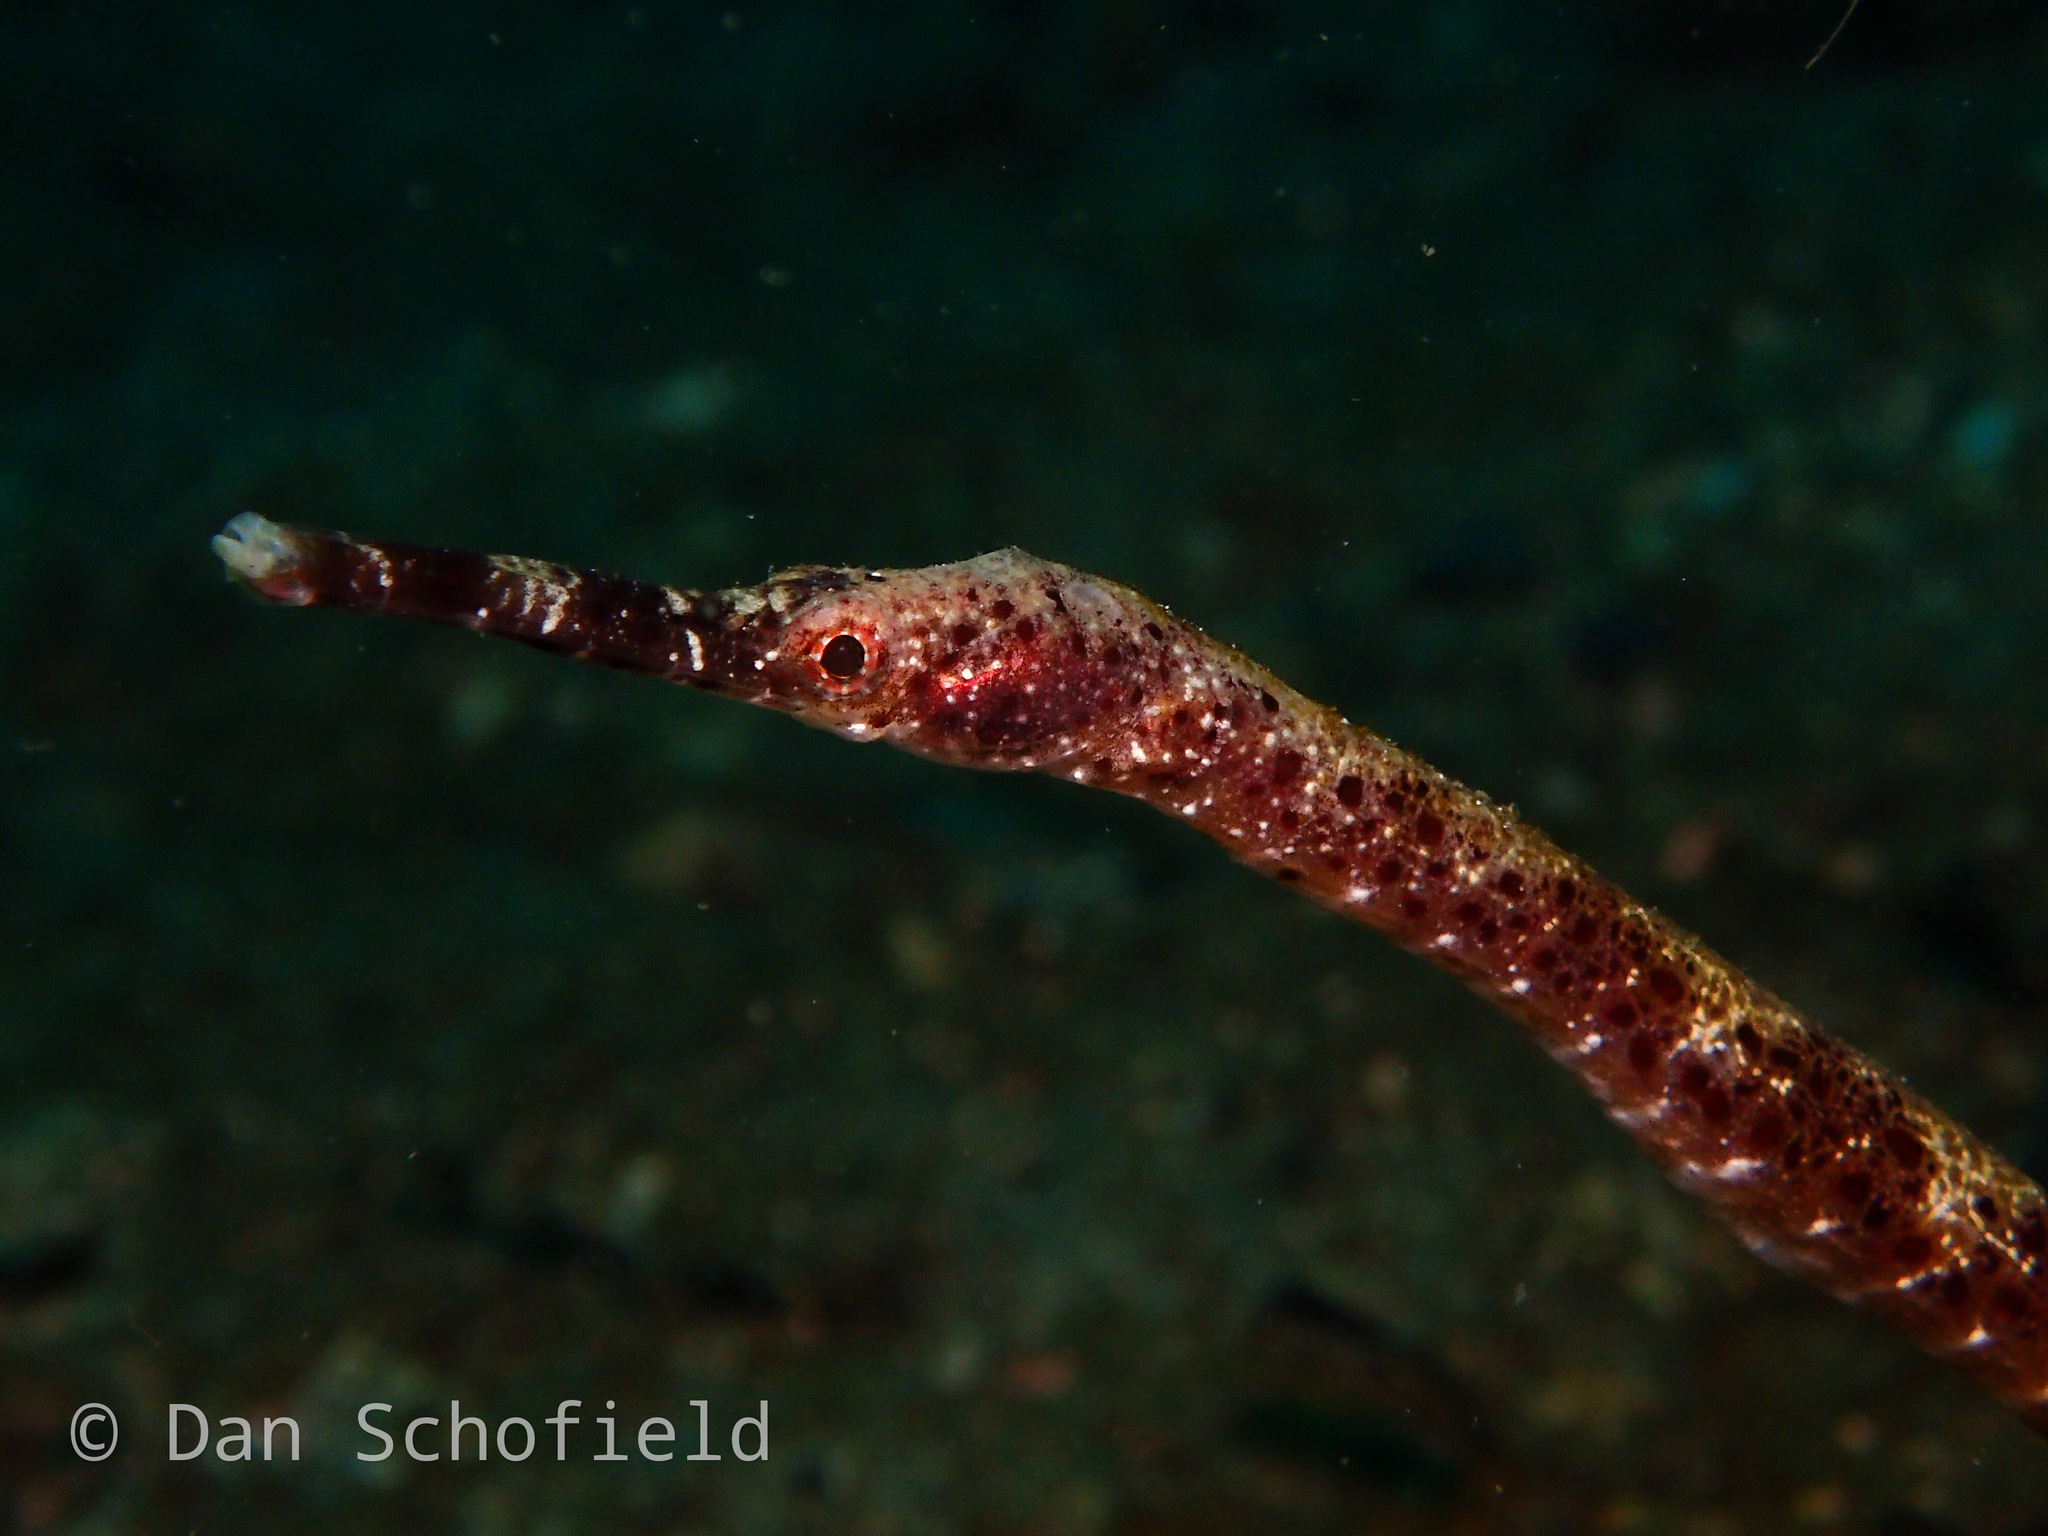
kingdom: Animalia
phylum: Chordata
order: Syngnathiformes
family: Syngnathidae
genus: Trachyrhamphus
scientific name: Trachyrhamphus bicoarctatus
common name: Double-ended pipefish
